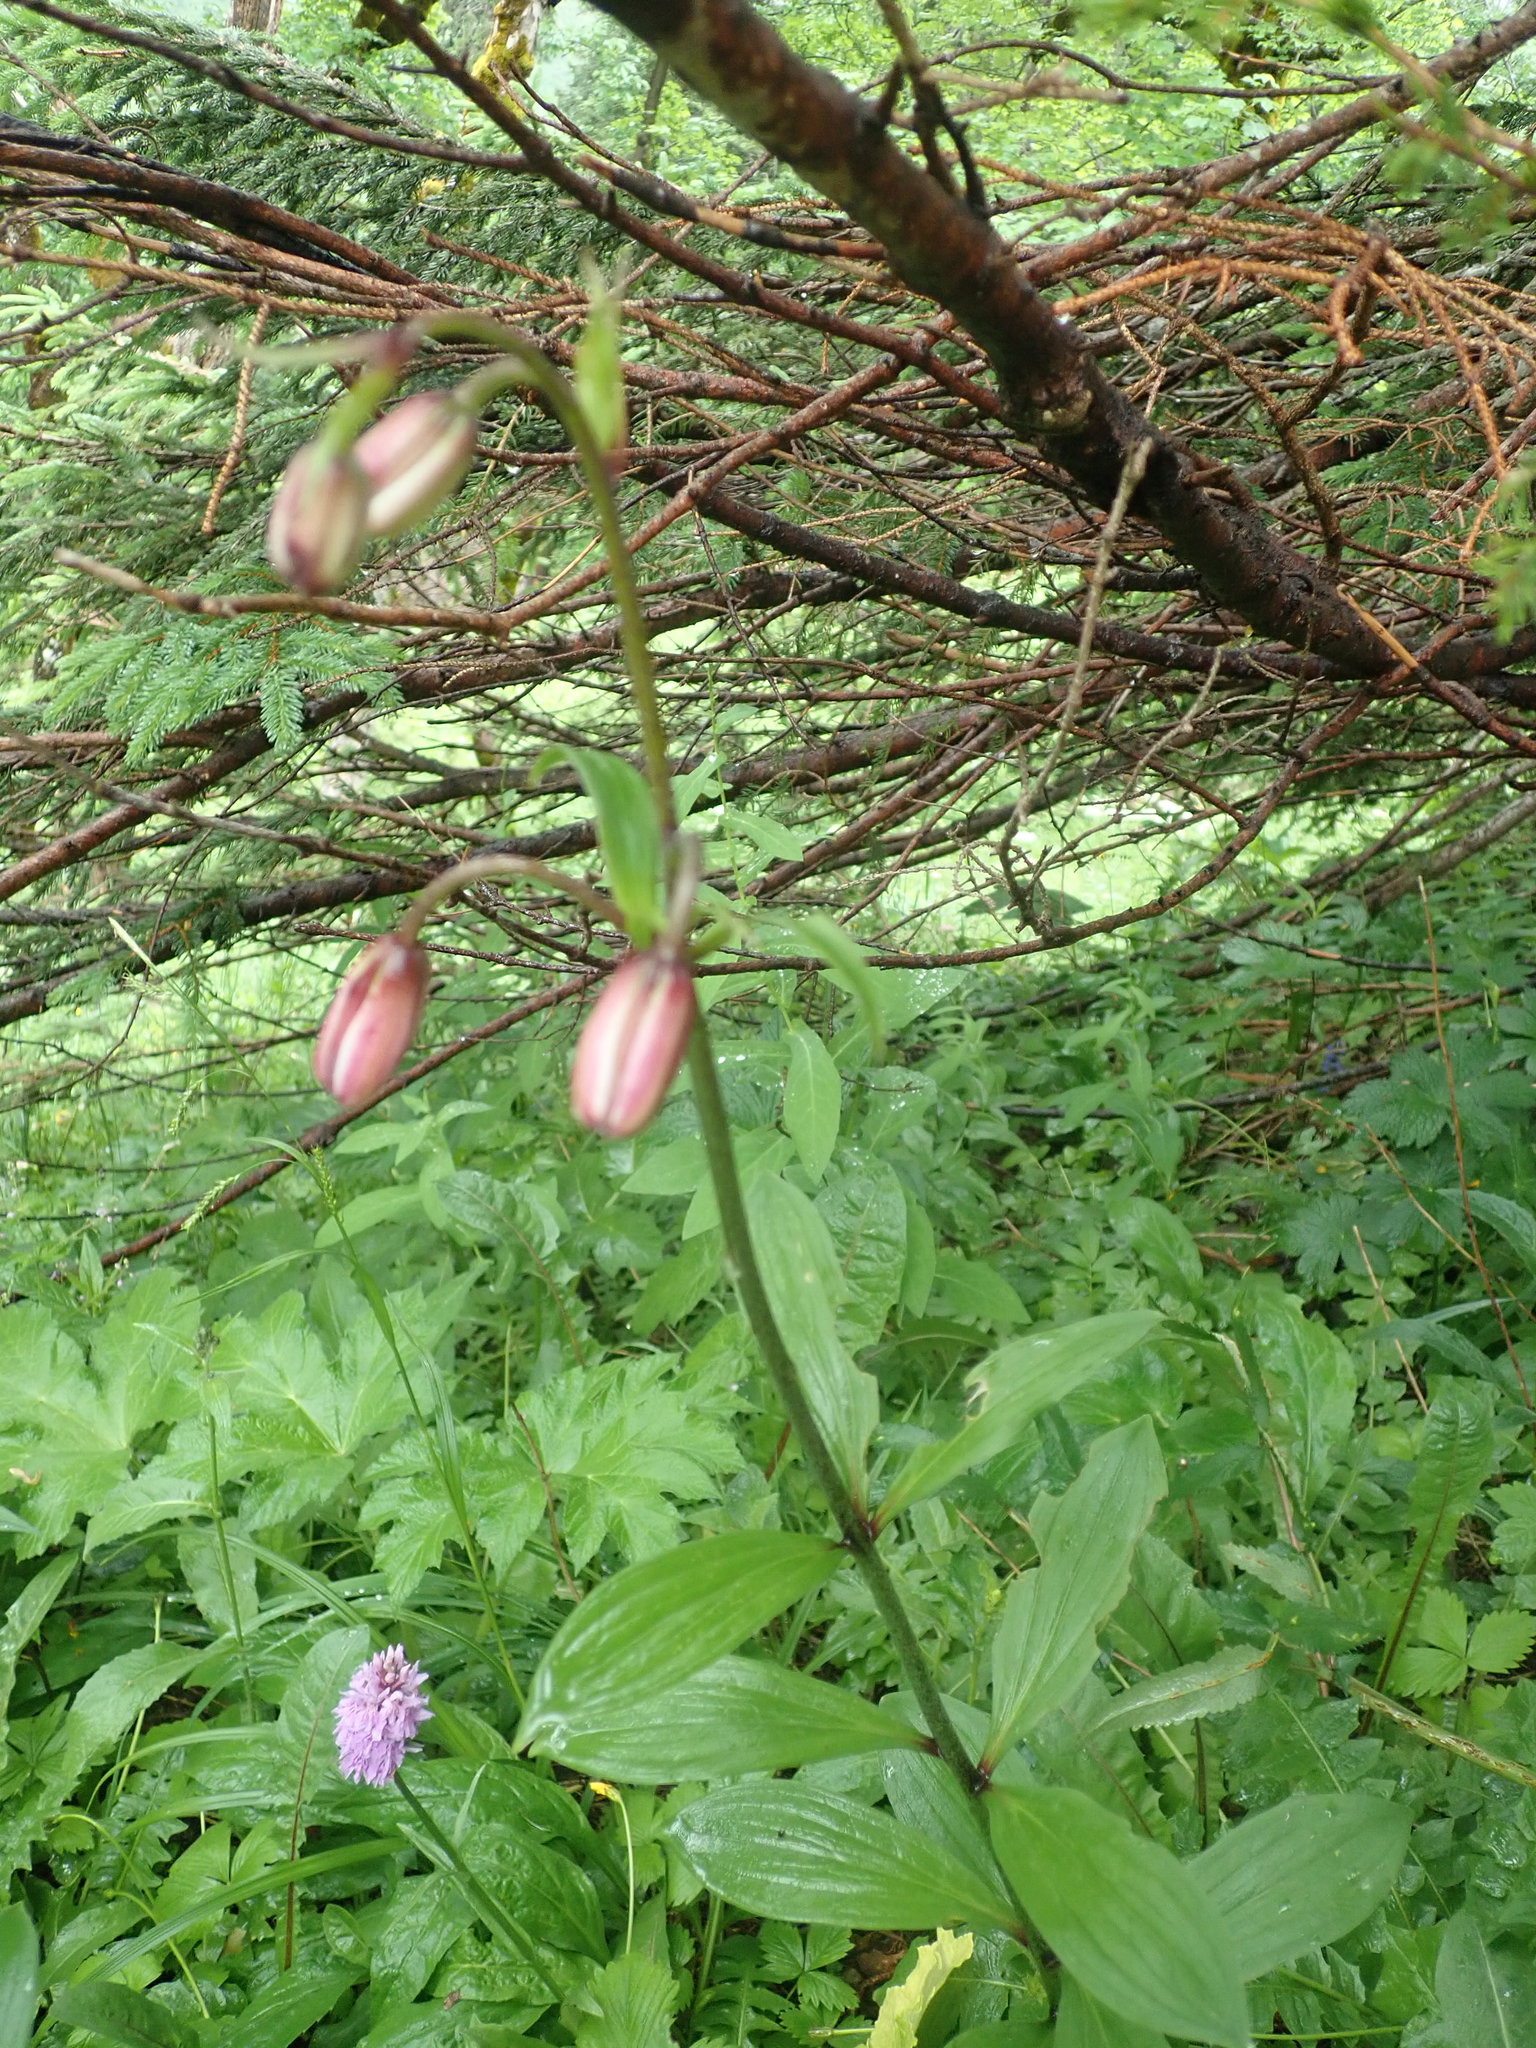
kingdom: Plantae
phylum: Tracheophyta
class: Liliopsida
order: Liliales
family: Liliaceae
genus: Lilium
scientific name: Lilium martagon
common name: Martagon lily
